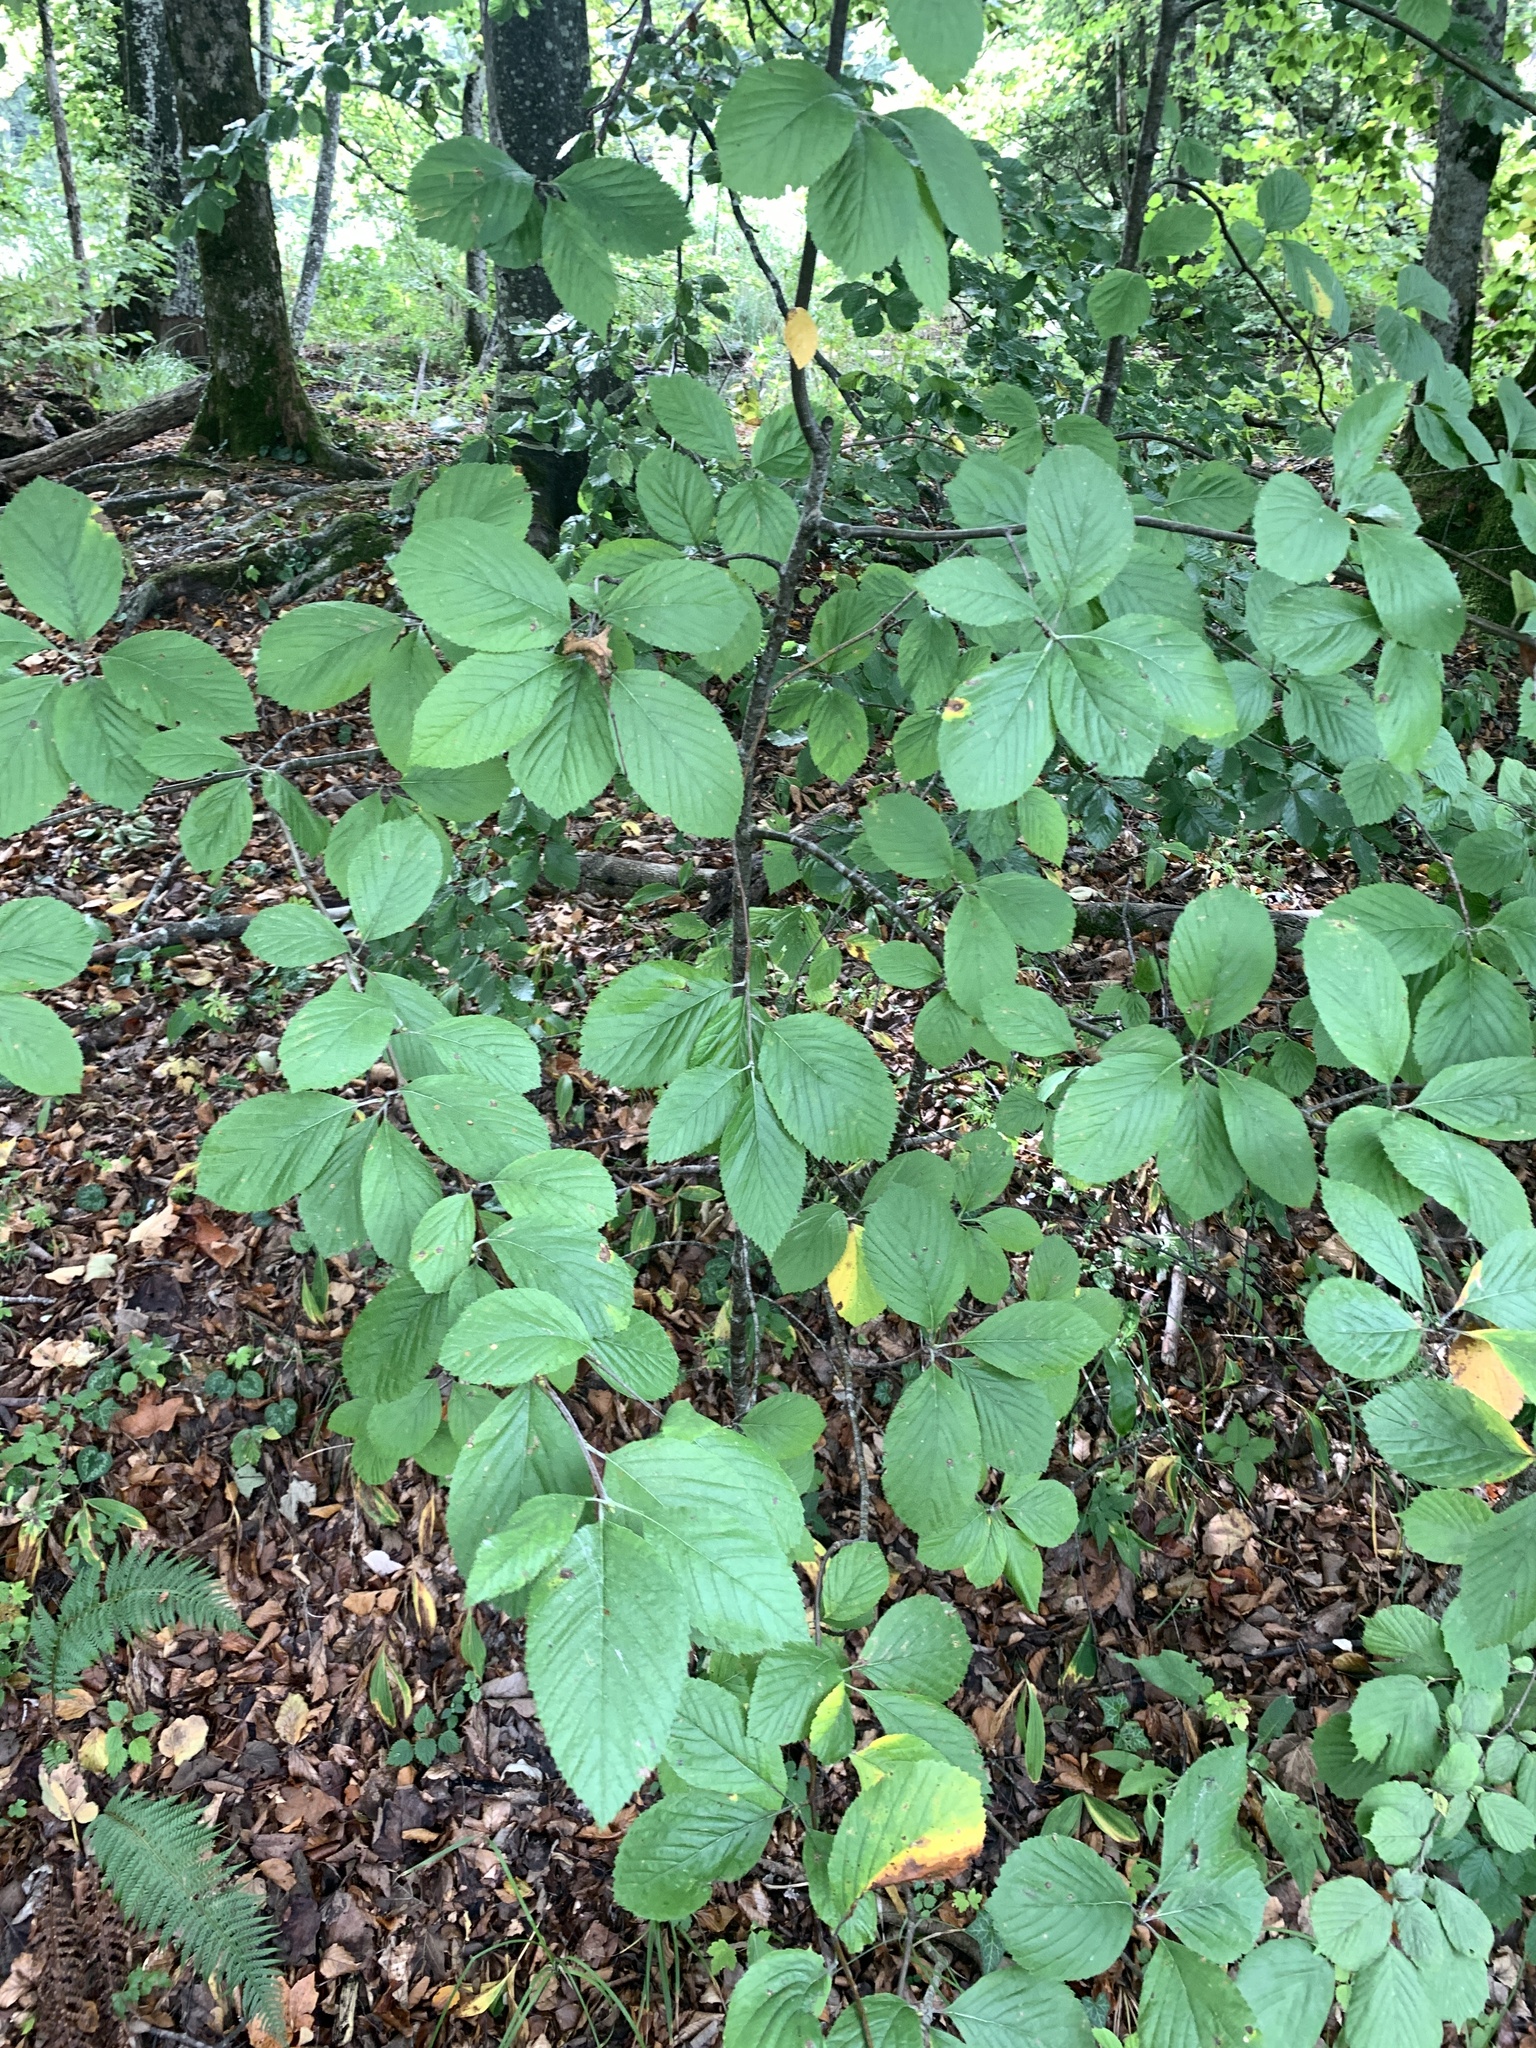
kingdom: Plantae
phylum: Tracheophyta
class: Magnoliopsida
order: Rosales
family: Rosaceae
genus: Aria
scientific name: Aria edulis
